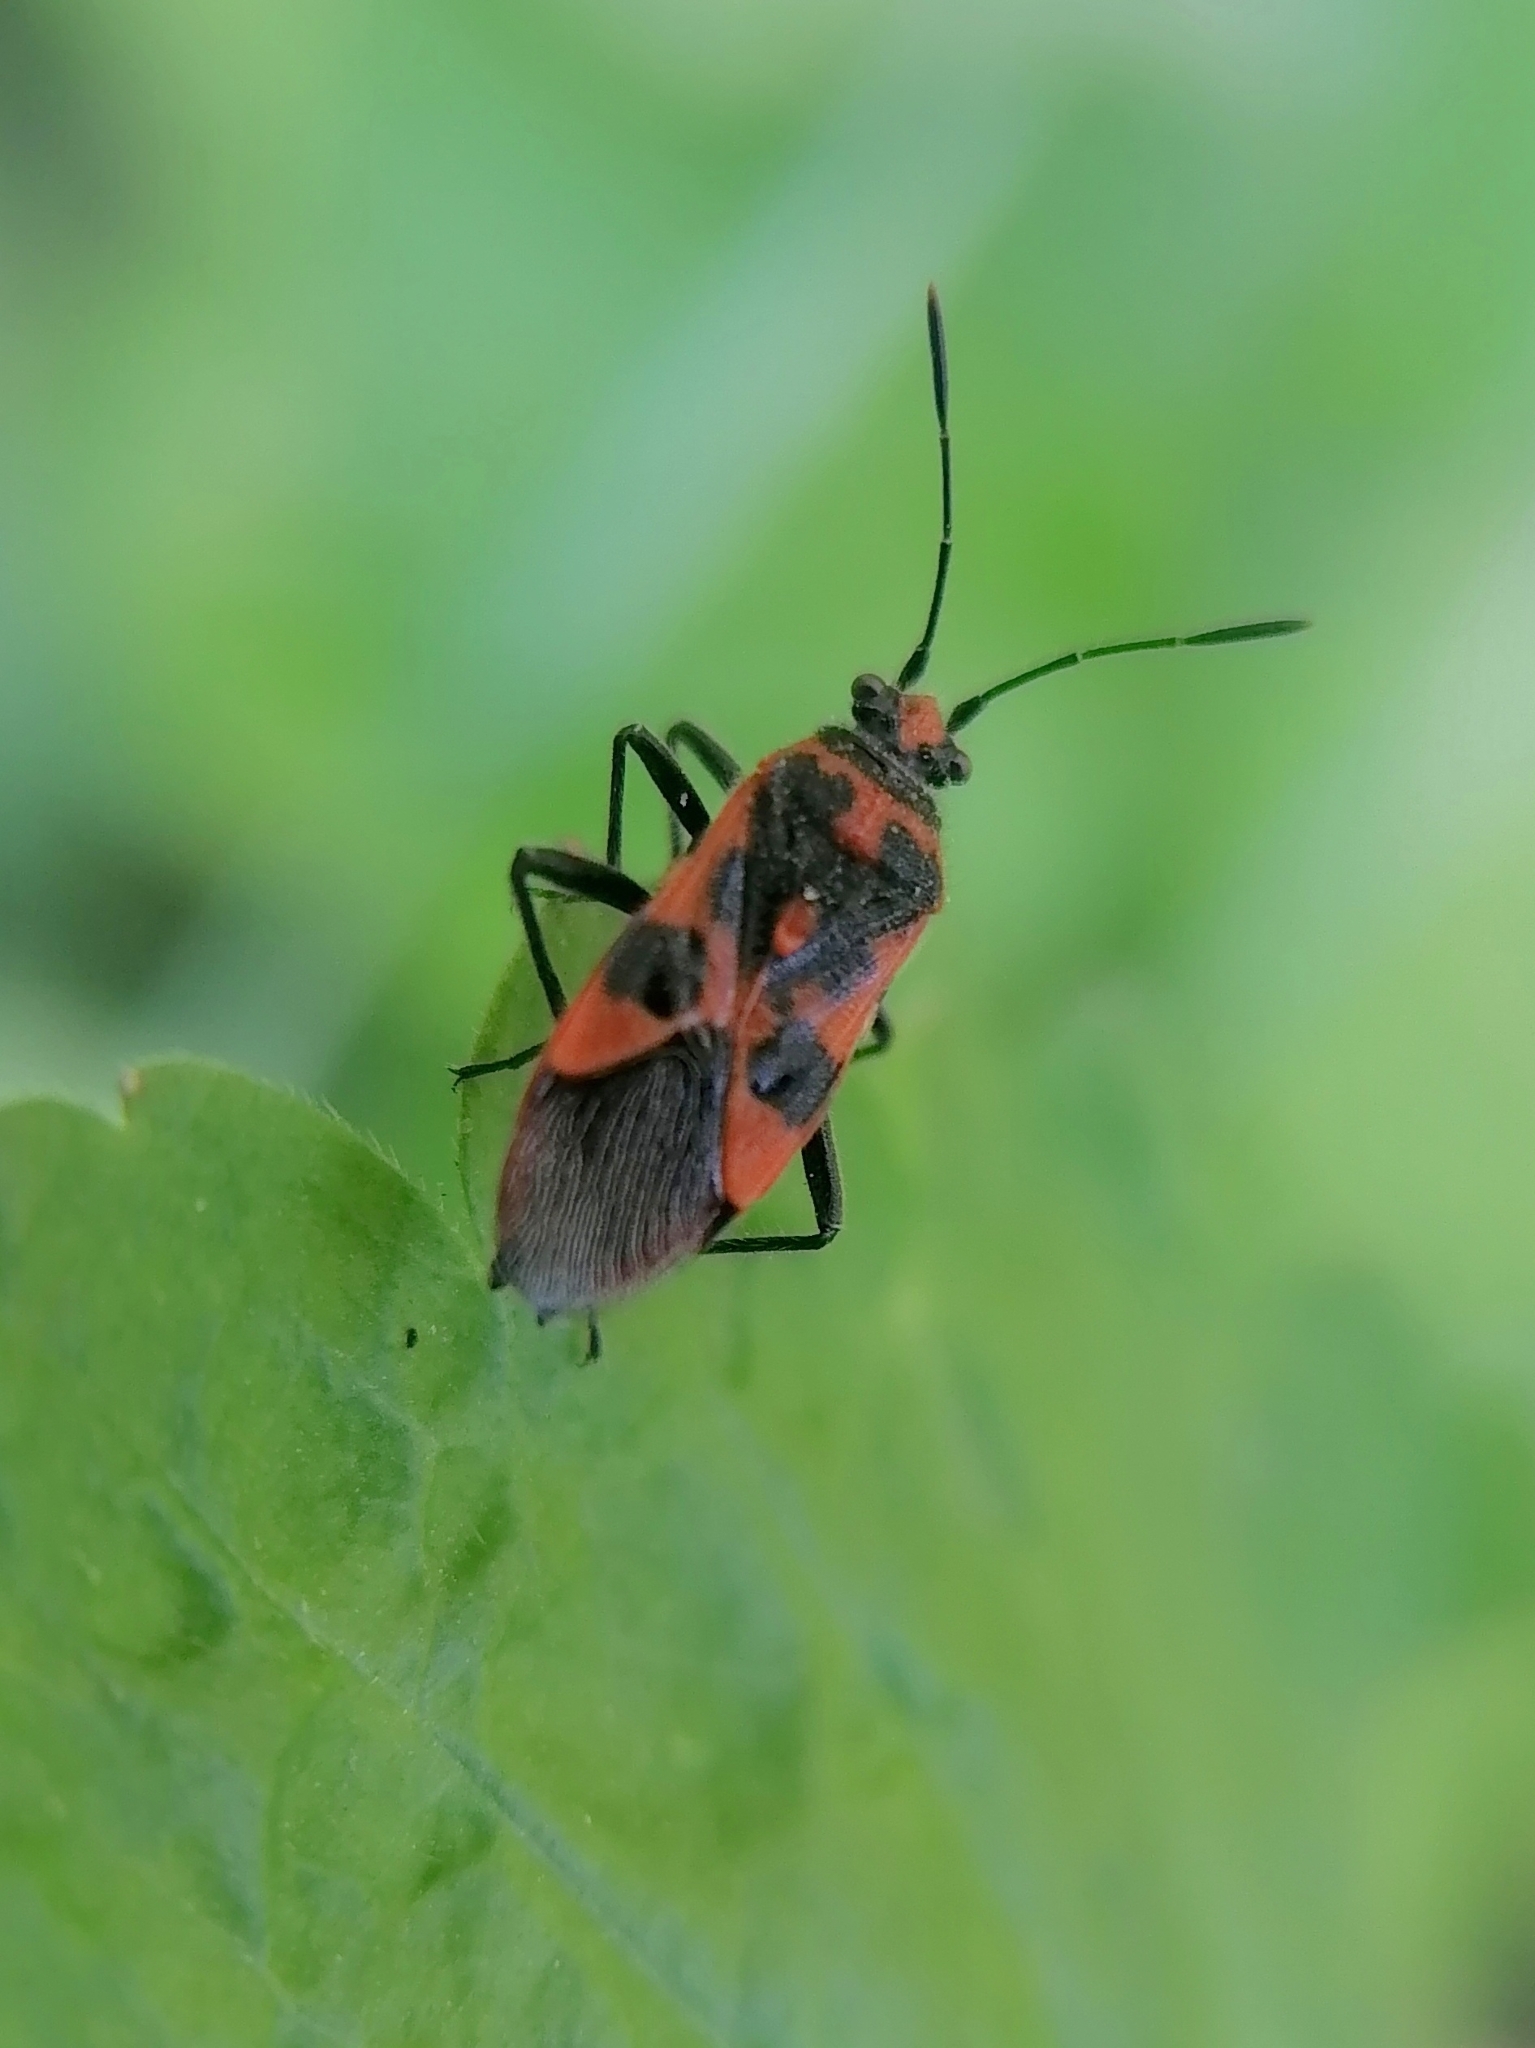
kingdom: Animalia
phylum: Arthropoda
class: Insecta
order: Hemiptera
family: Rhopalidae
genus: Corizus
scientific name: Corizus hyoscyami
